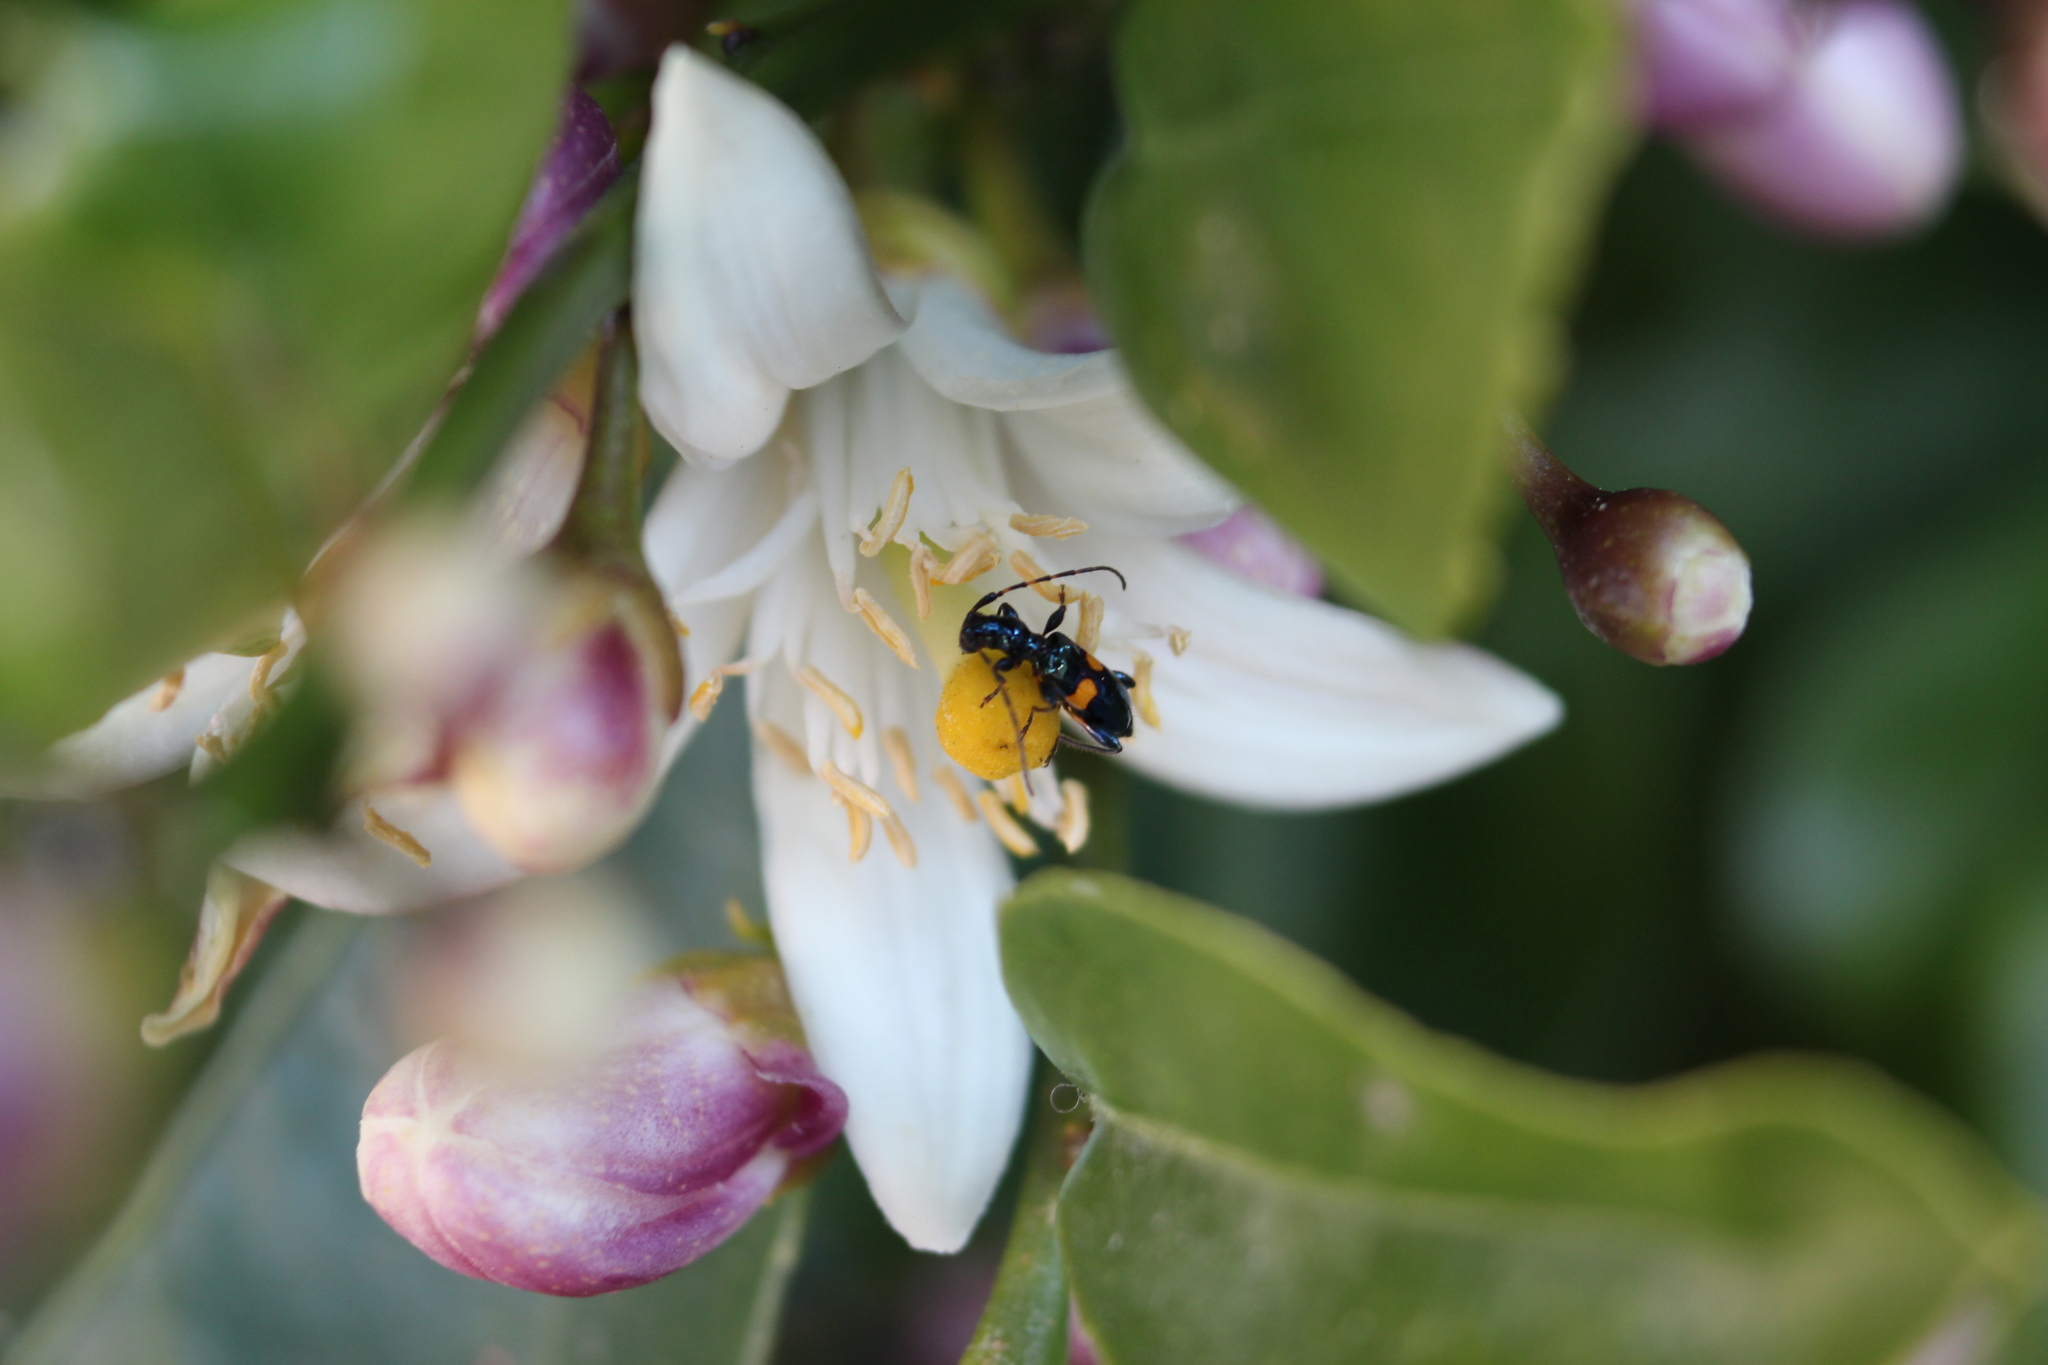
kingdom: Animalia
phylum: Arthropoda
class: Insecta
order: Coleoptera
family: Cerambycidae
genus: Zorion
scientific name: Zorion guttigerum
